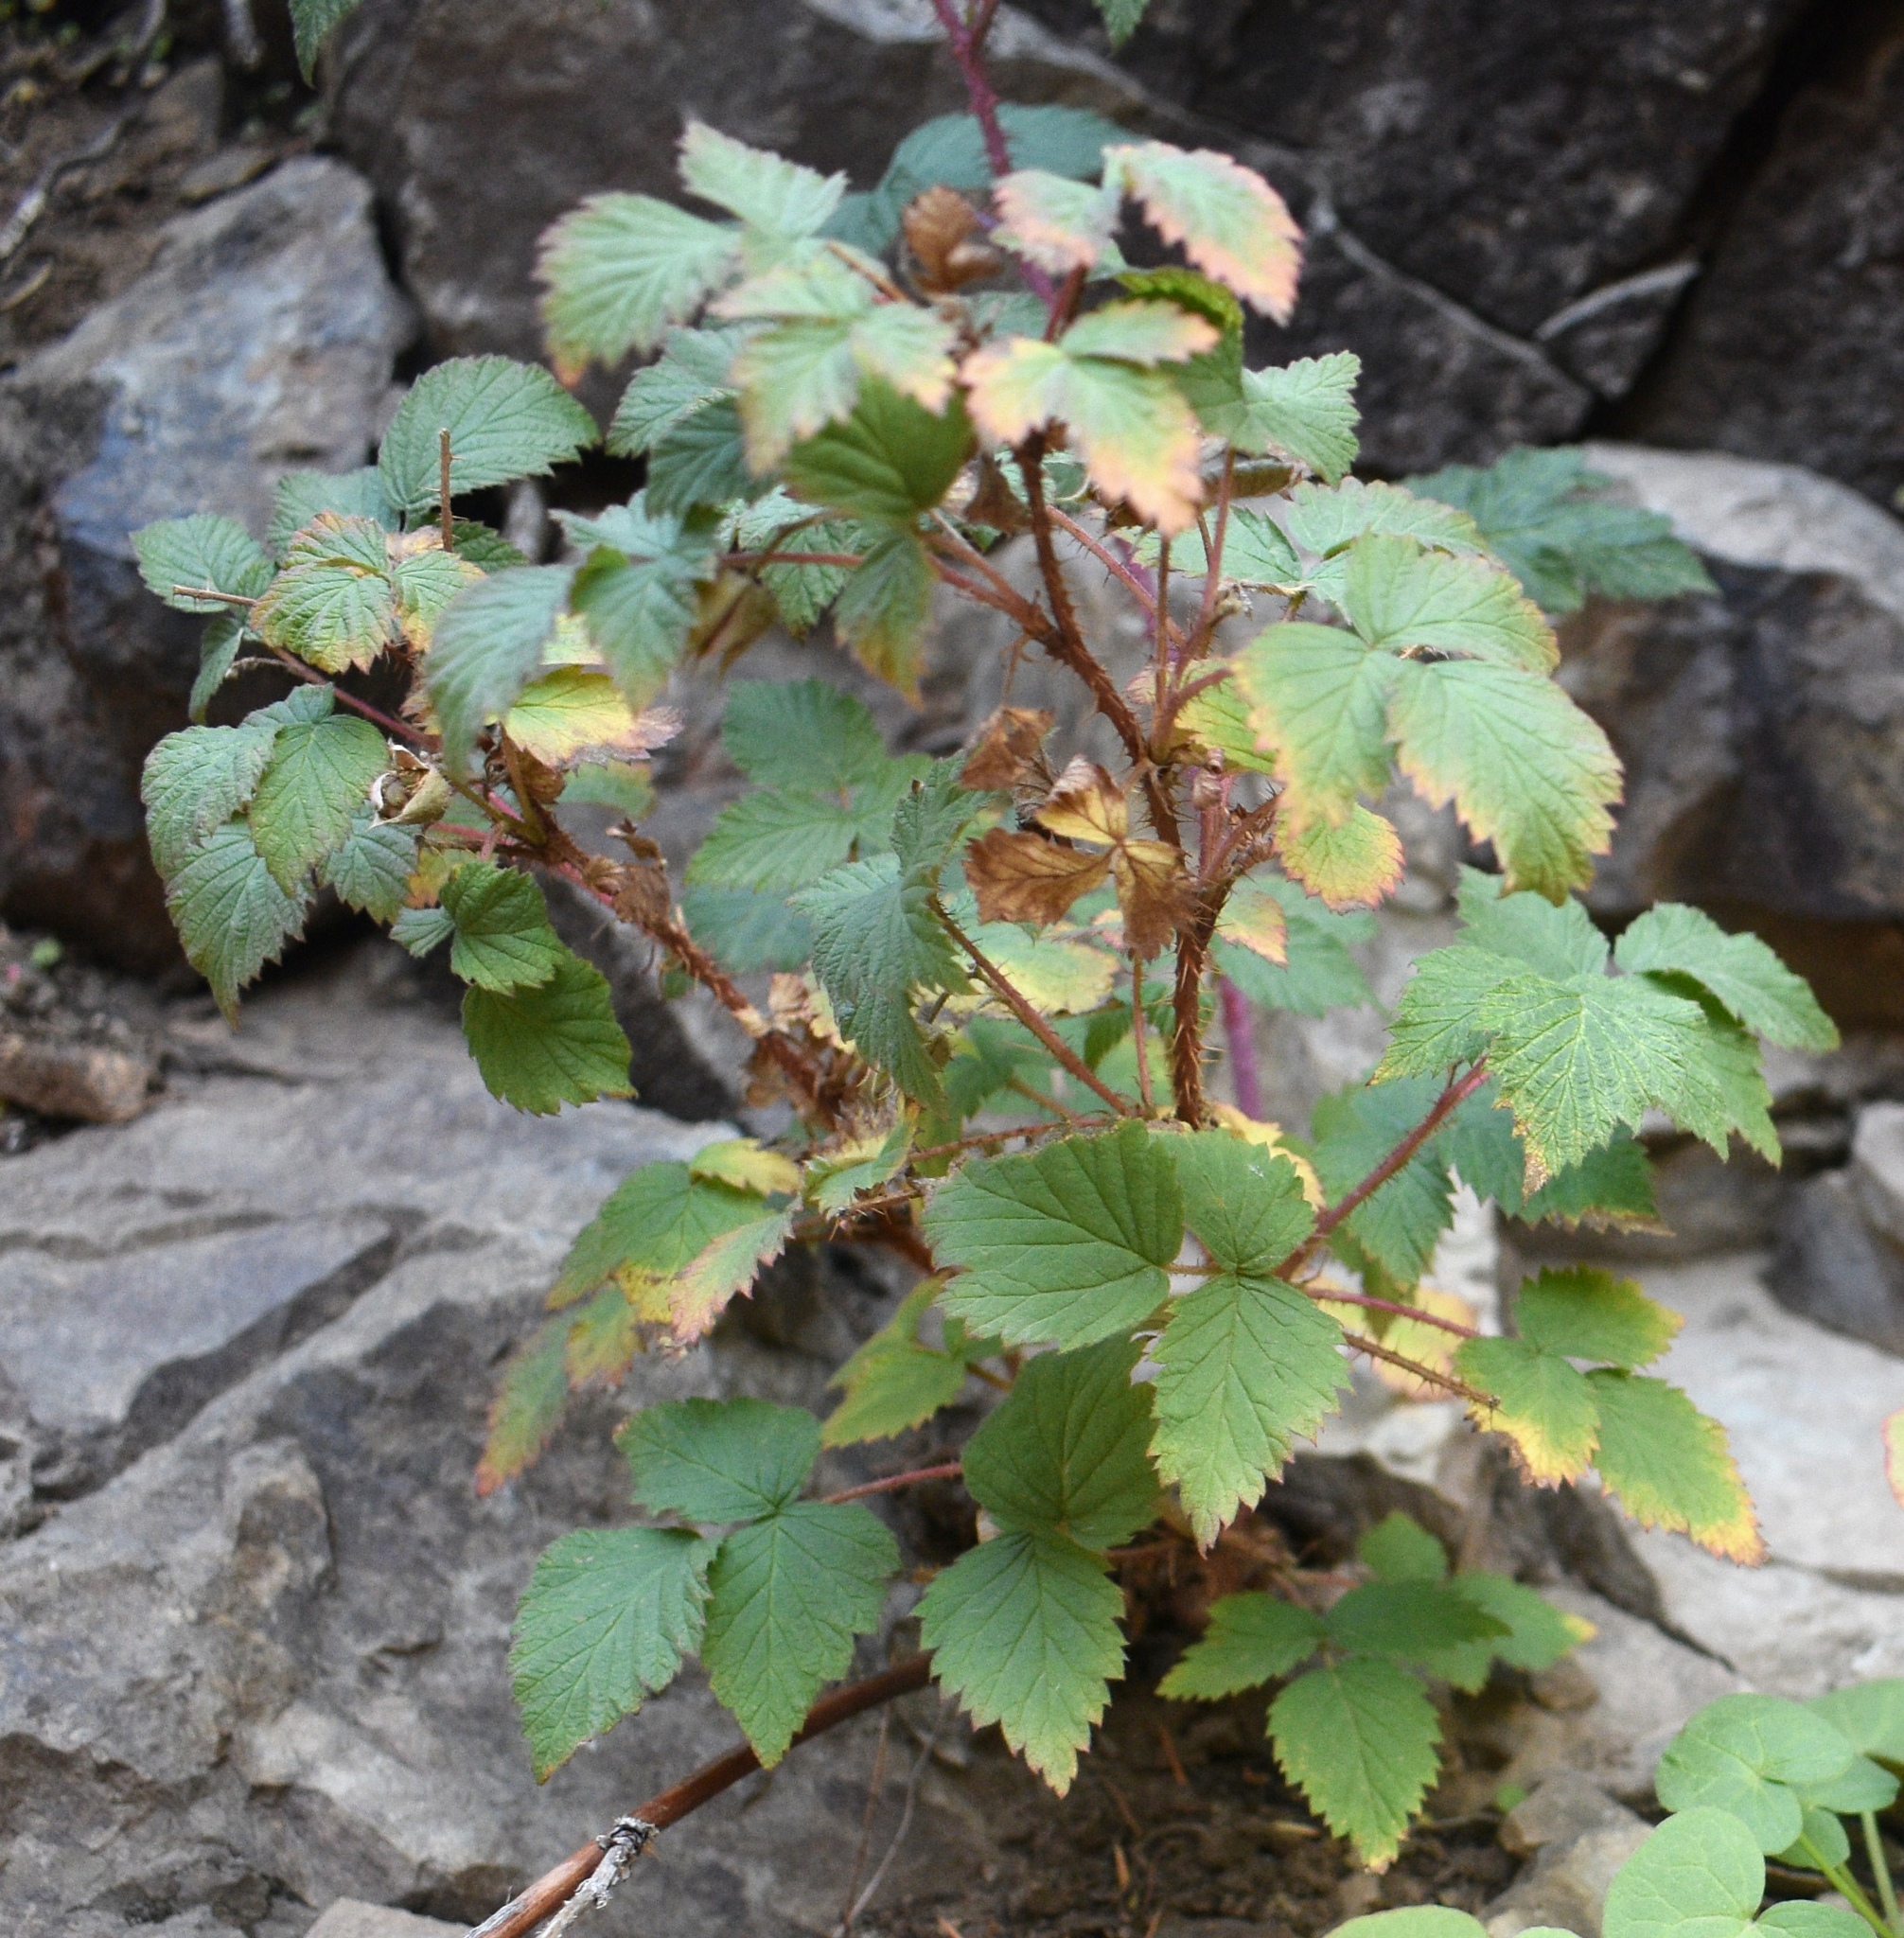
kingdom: Plantae
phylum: Tracheophyta
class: Magnoliopsida
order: Rosales
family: Rosaceae
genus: Rubus
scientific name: Rubus idaeus
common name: Raspberry
